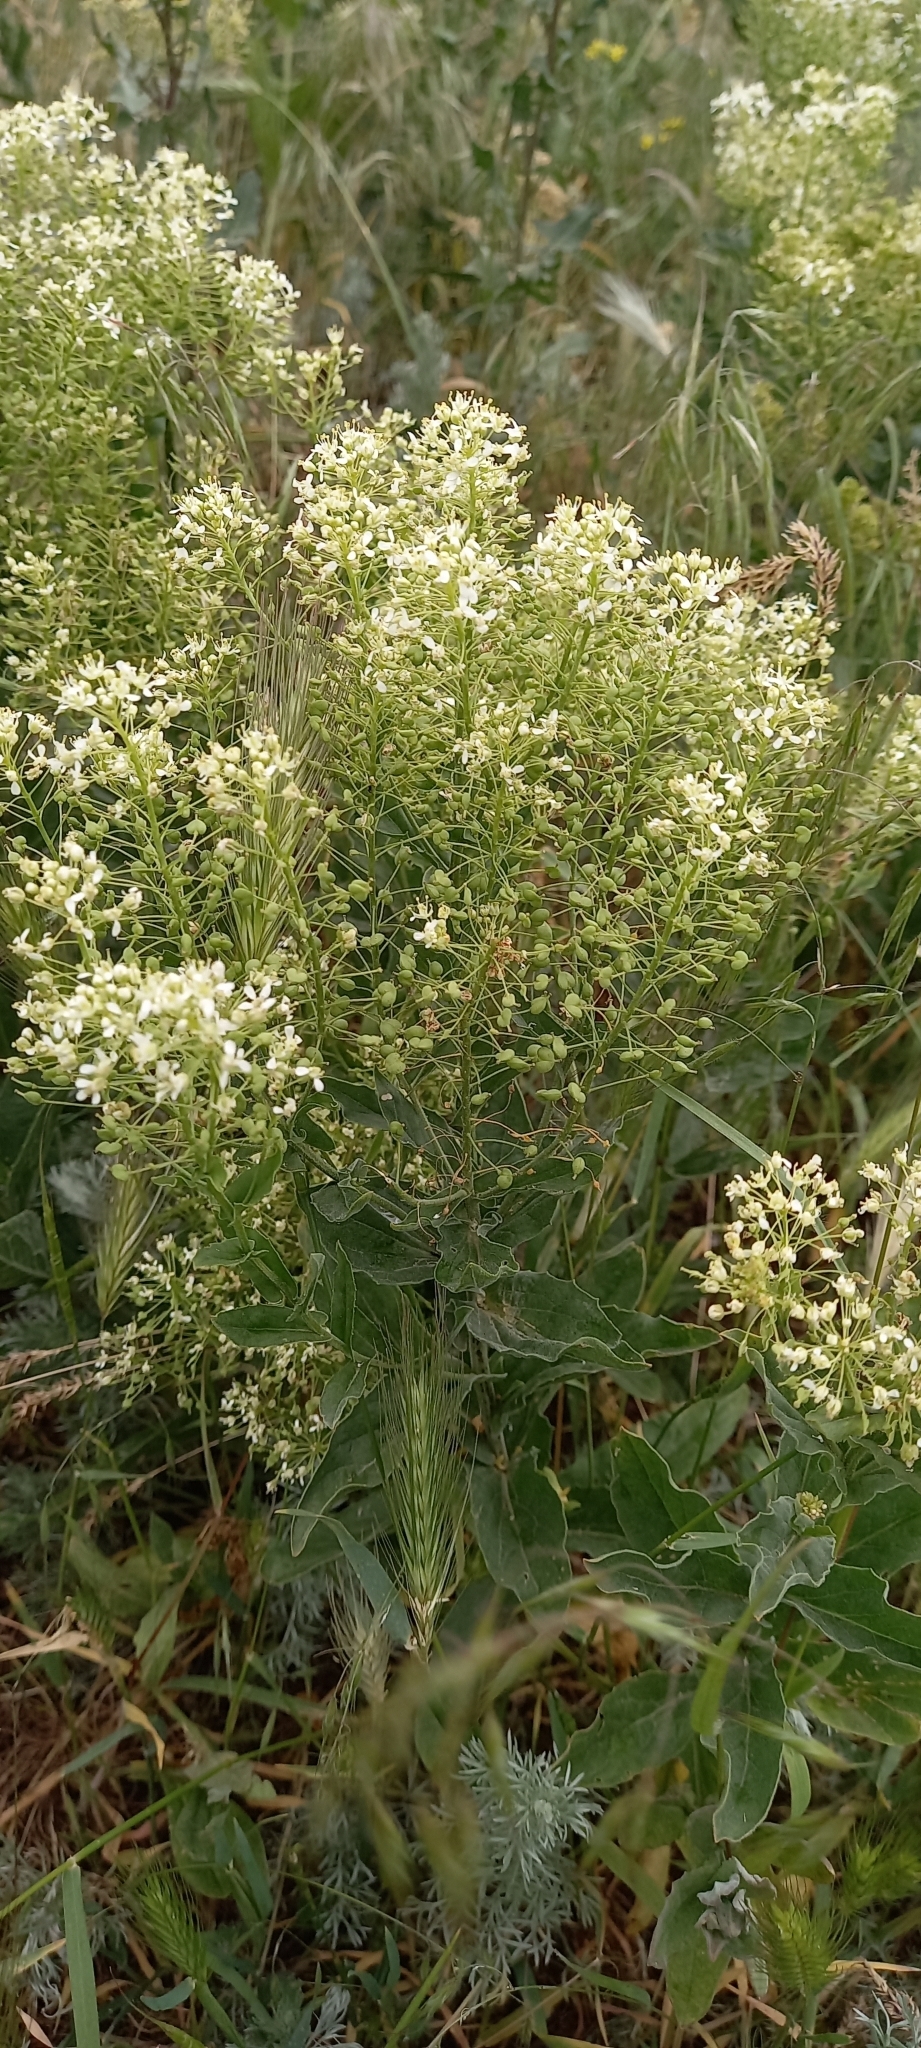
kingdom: Plantae
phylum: Tracheophyta
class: Magnoliopsida
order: Brassicales
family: Brassicaceae
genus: Lepidium
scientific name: Lepidium draba
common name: Hoary cress
